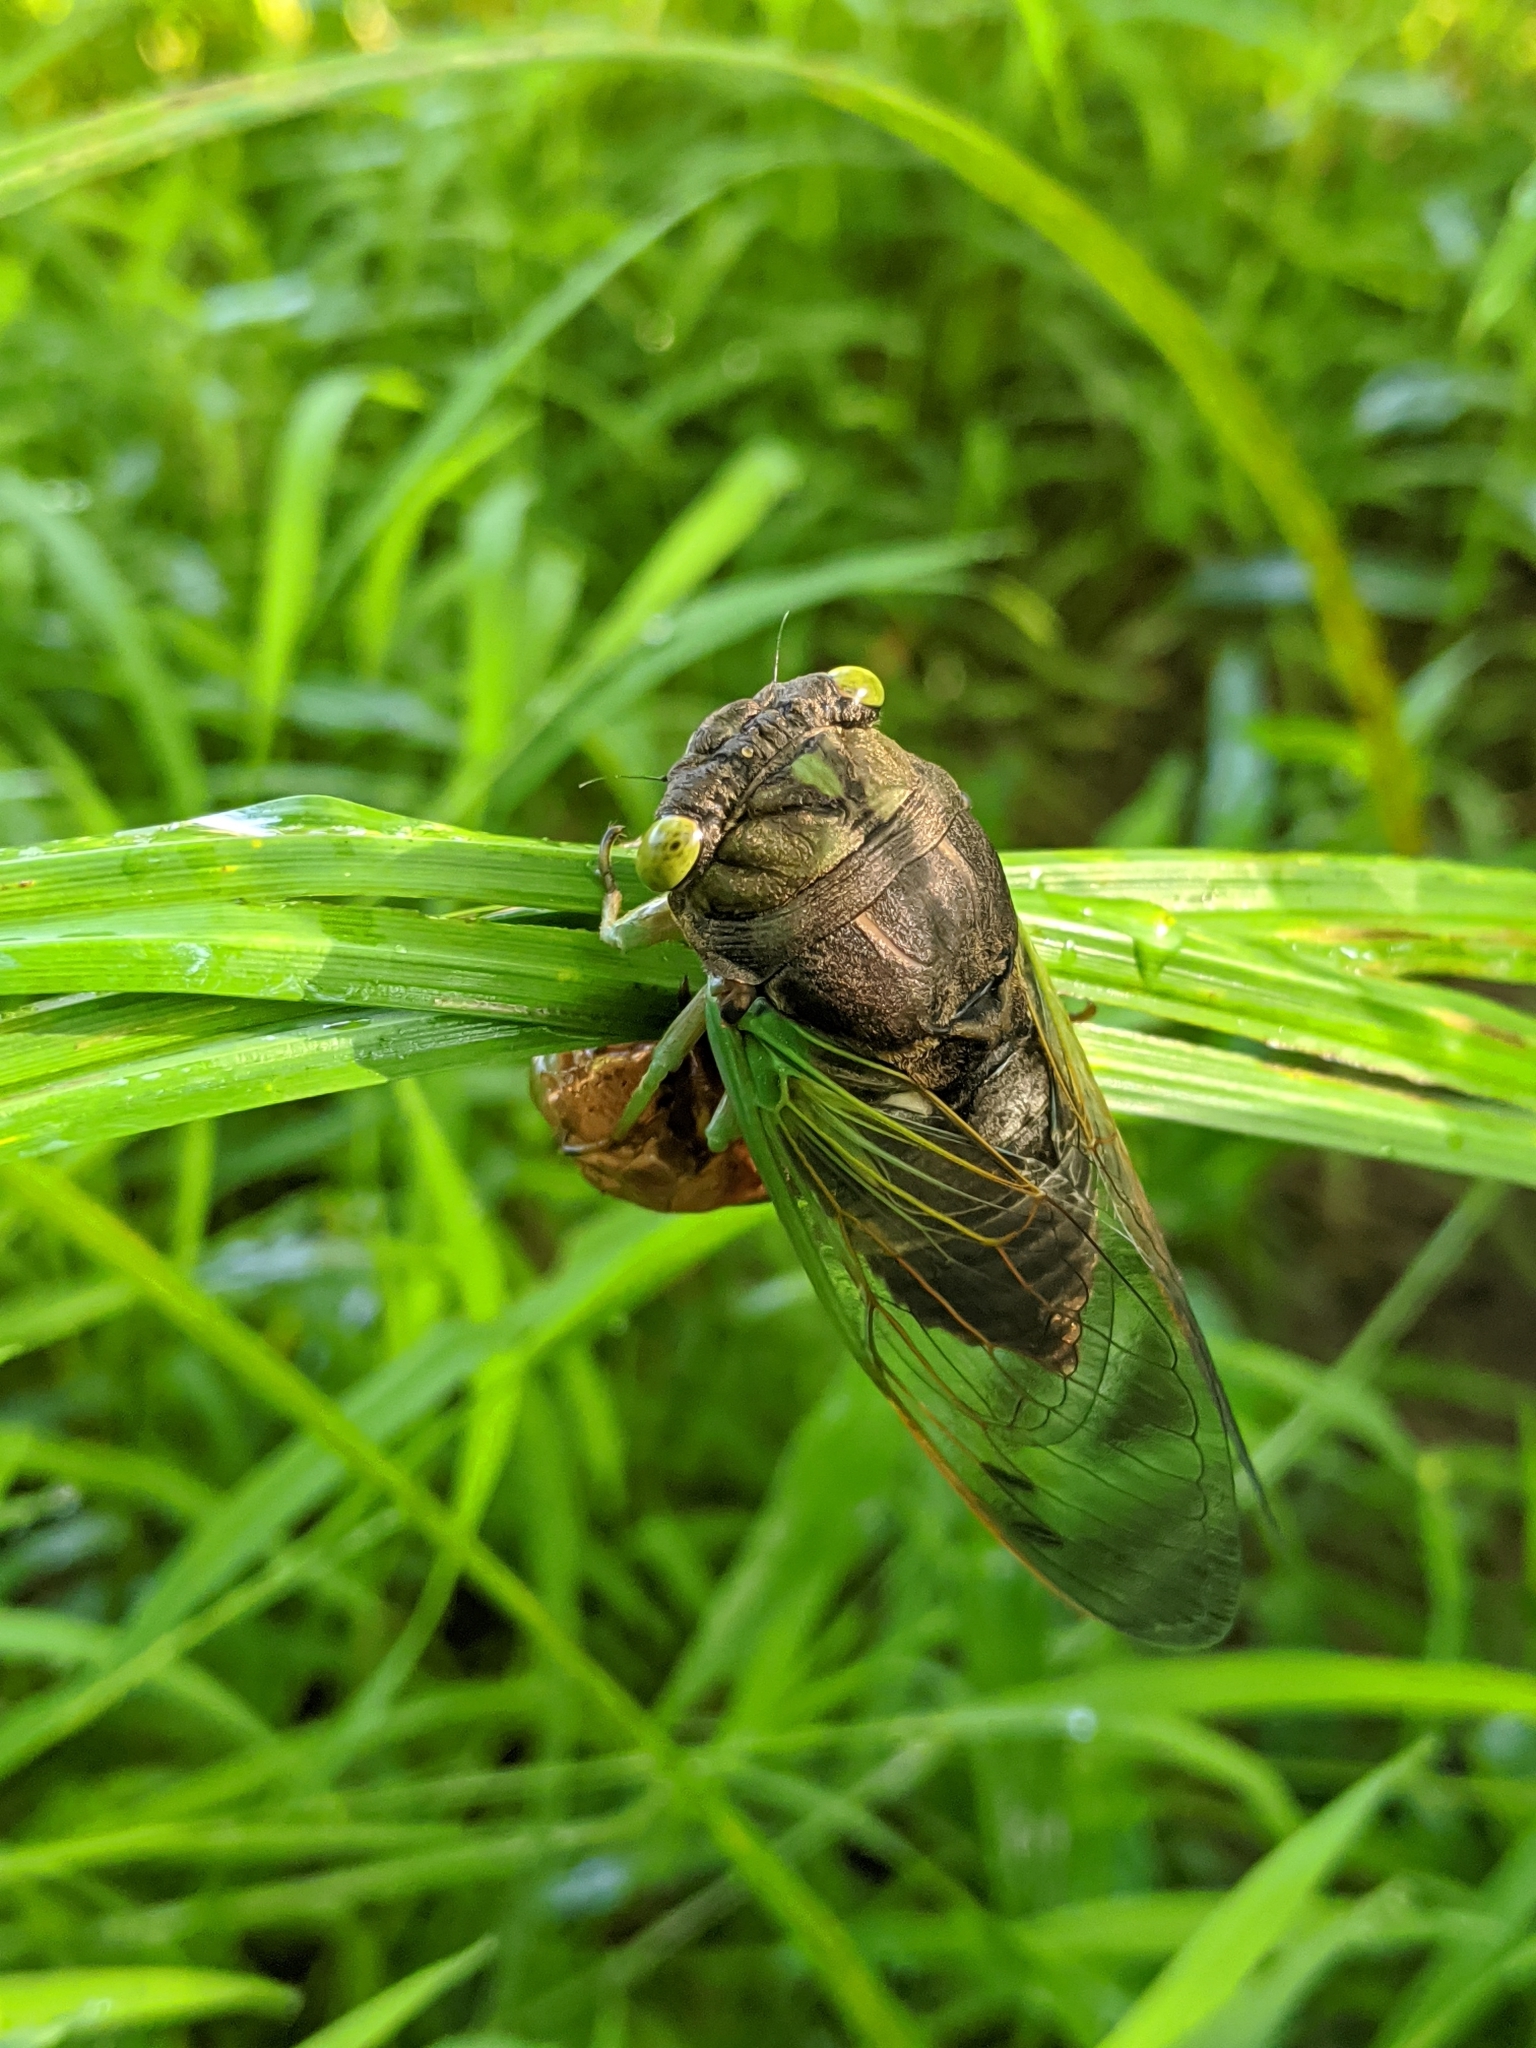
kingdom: Animalia
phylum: Arthropoda
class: Insecta
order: Hemiptera
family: Cicadidae
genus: Neotibicen
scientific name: Neotibicen tibicen
